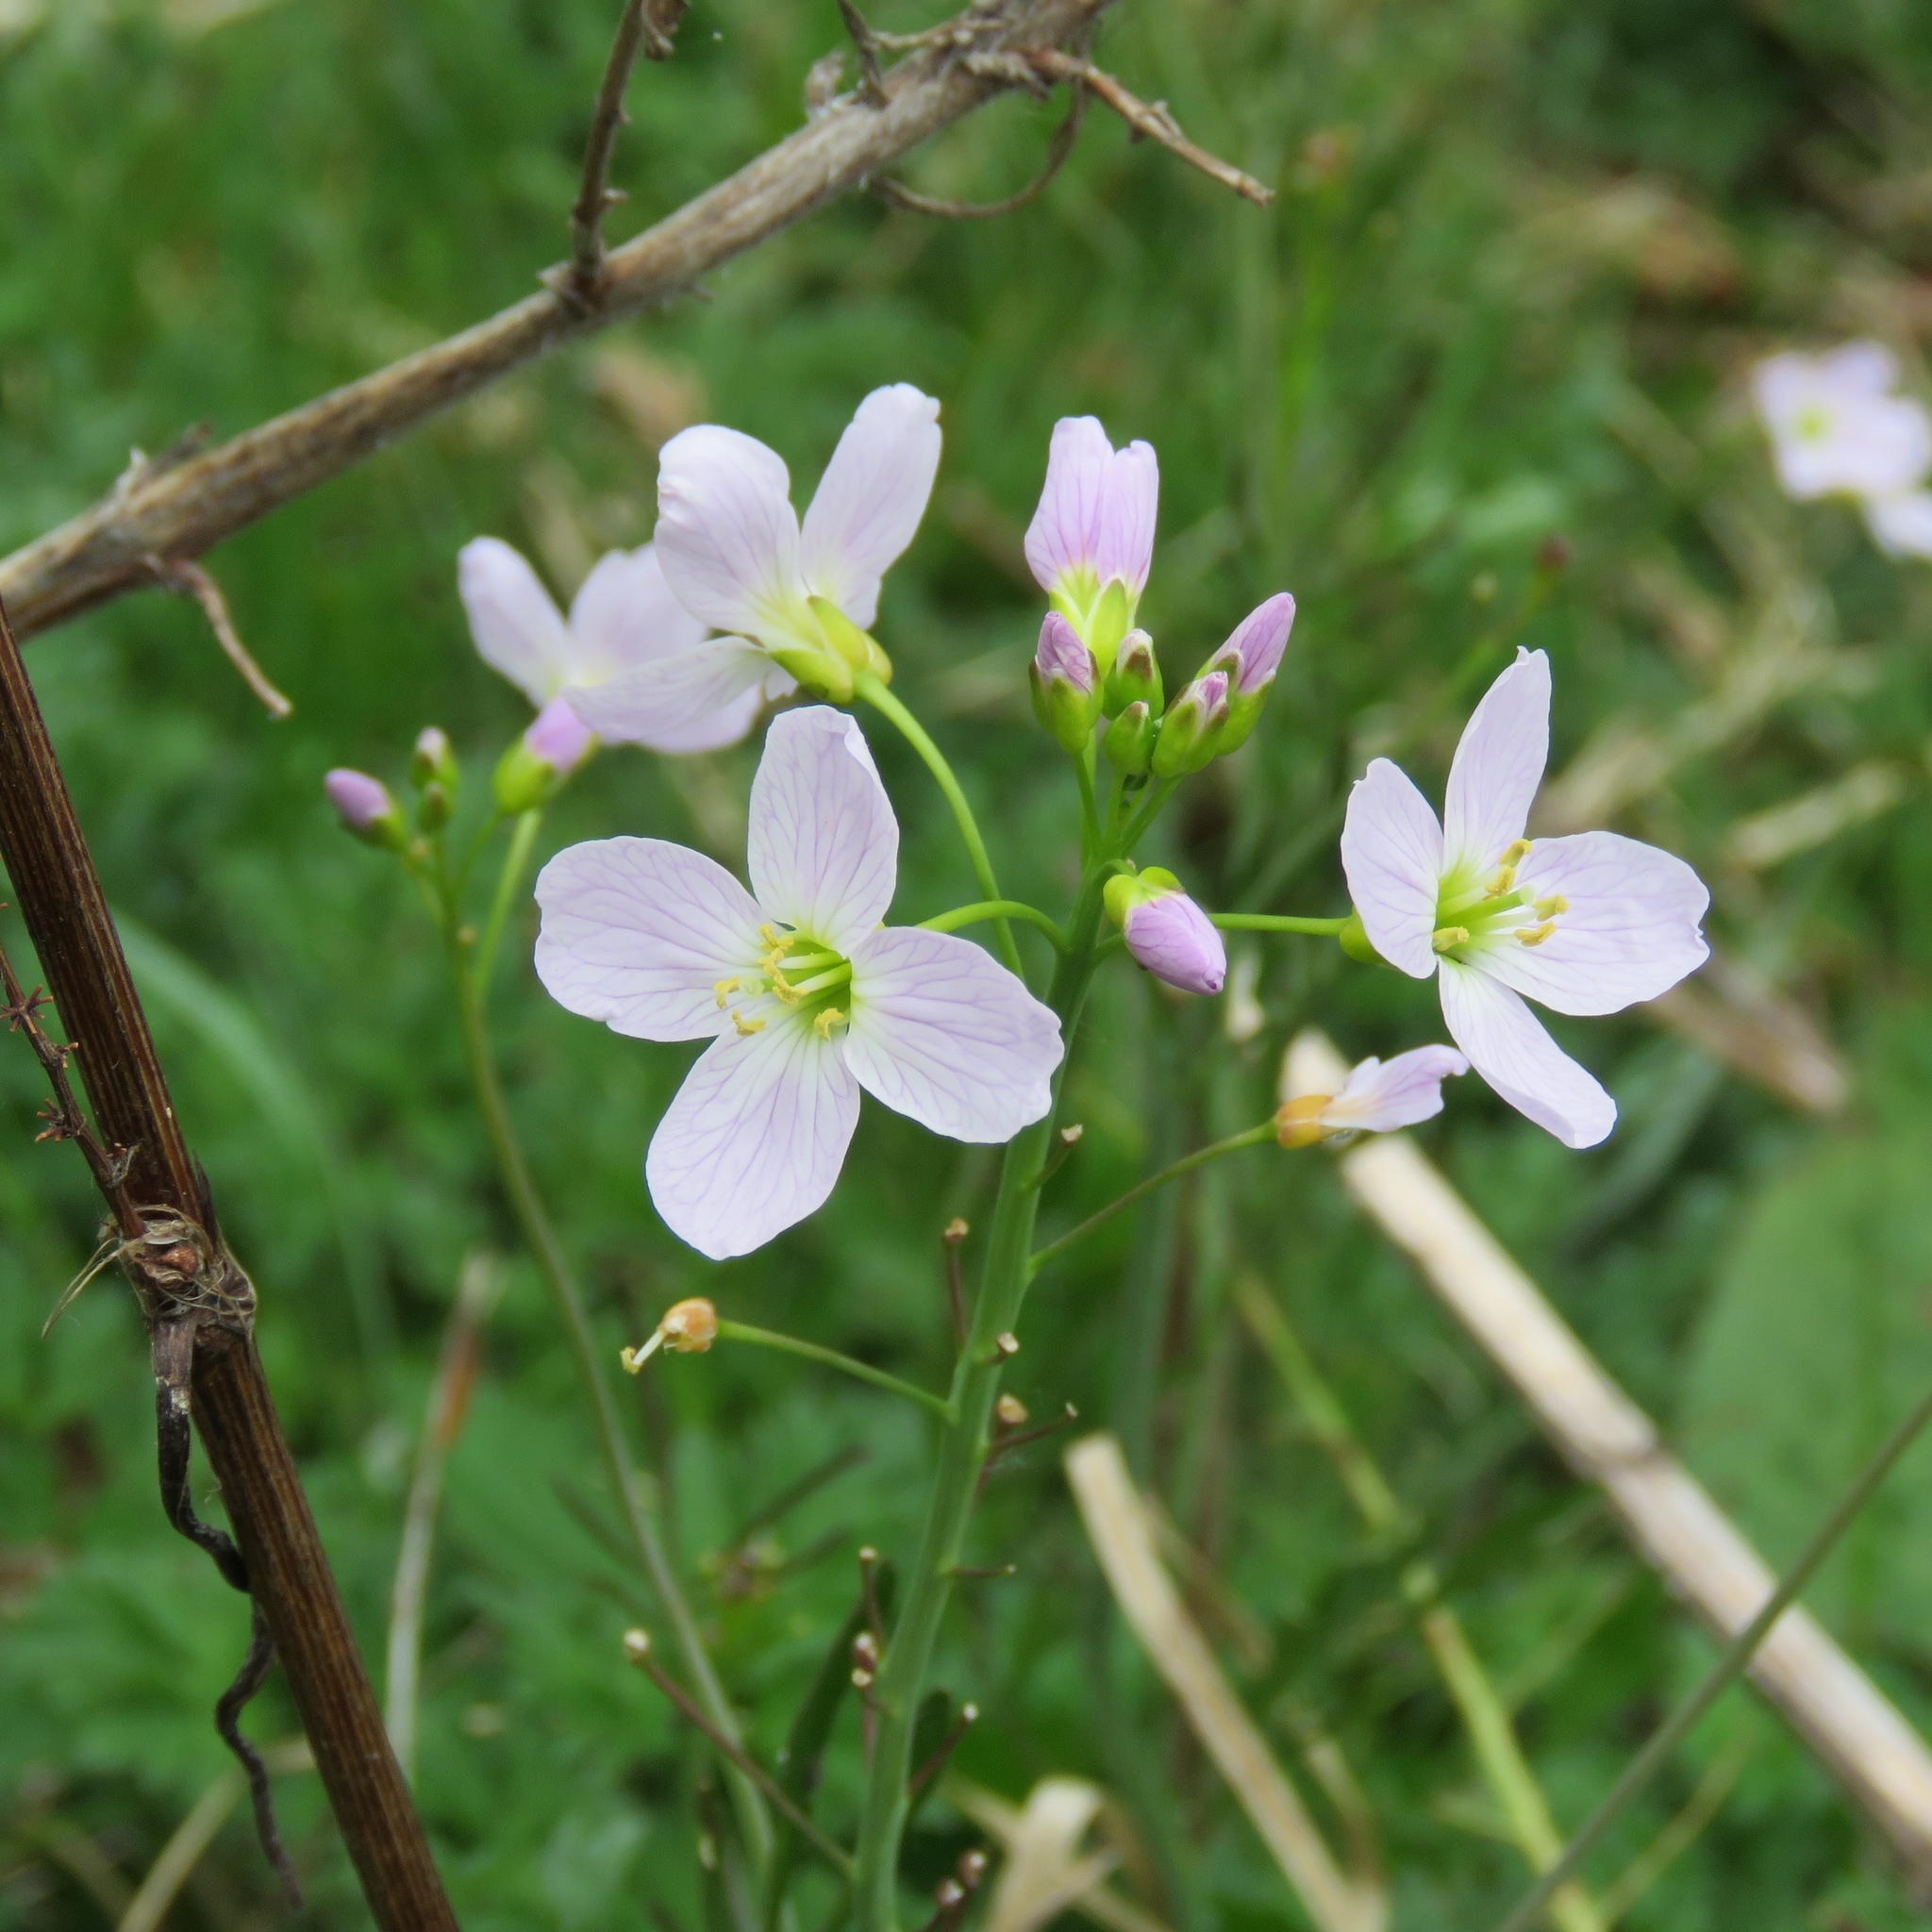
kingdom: Plantae
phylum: Tracheophyta
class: Magnoliopsida
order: Brassicales
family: Brassicaceae
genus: Cardamine
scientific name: Cardamine pratensis
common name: Cuckoo flower
